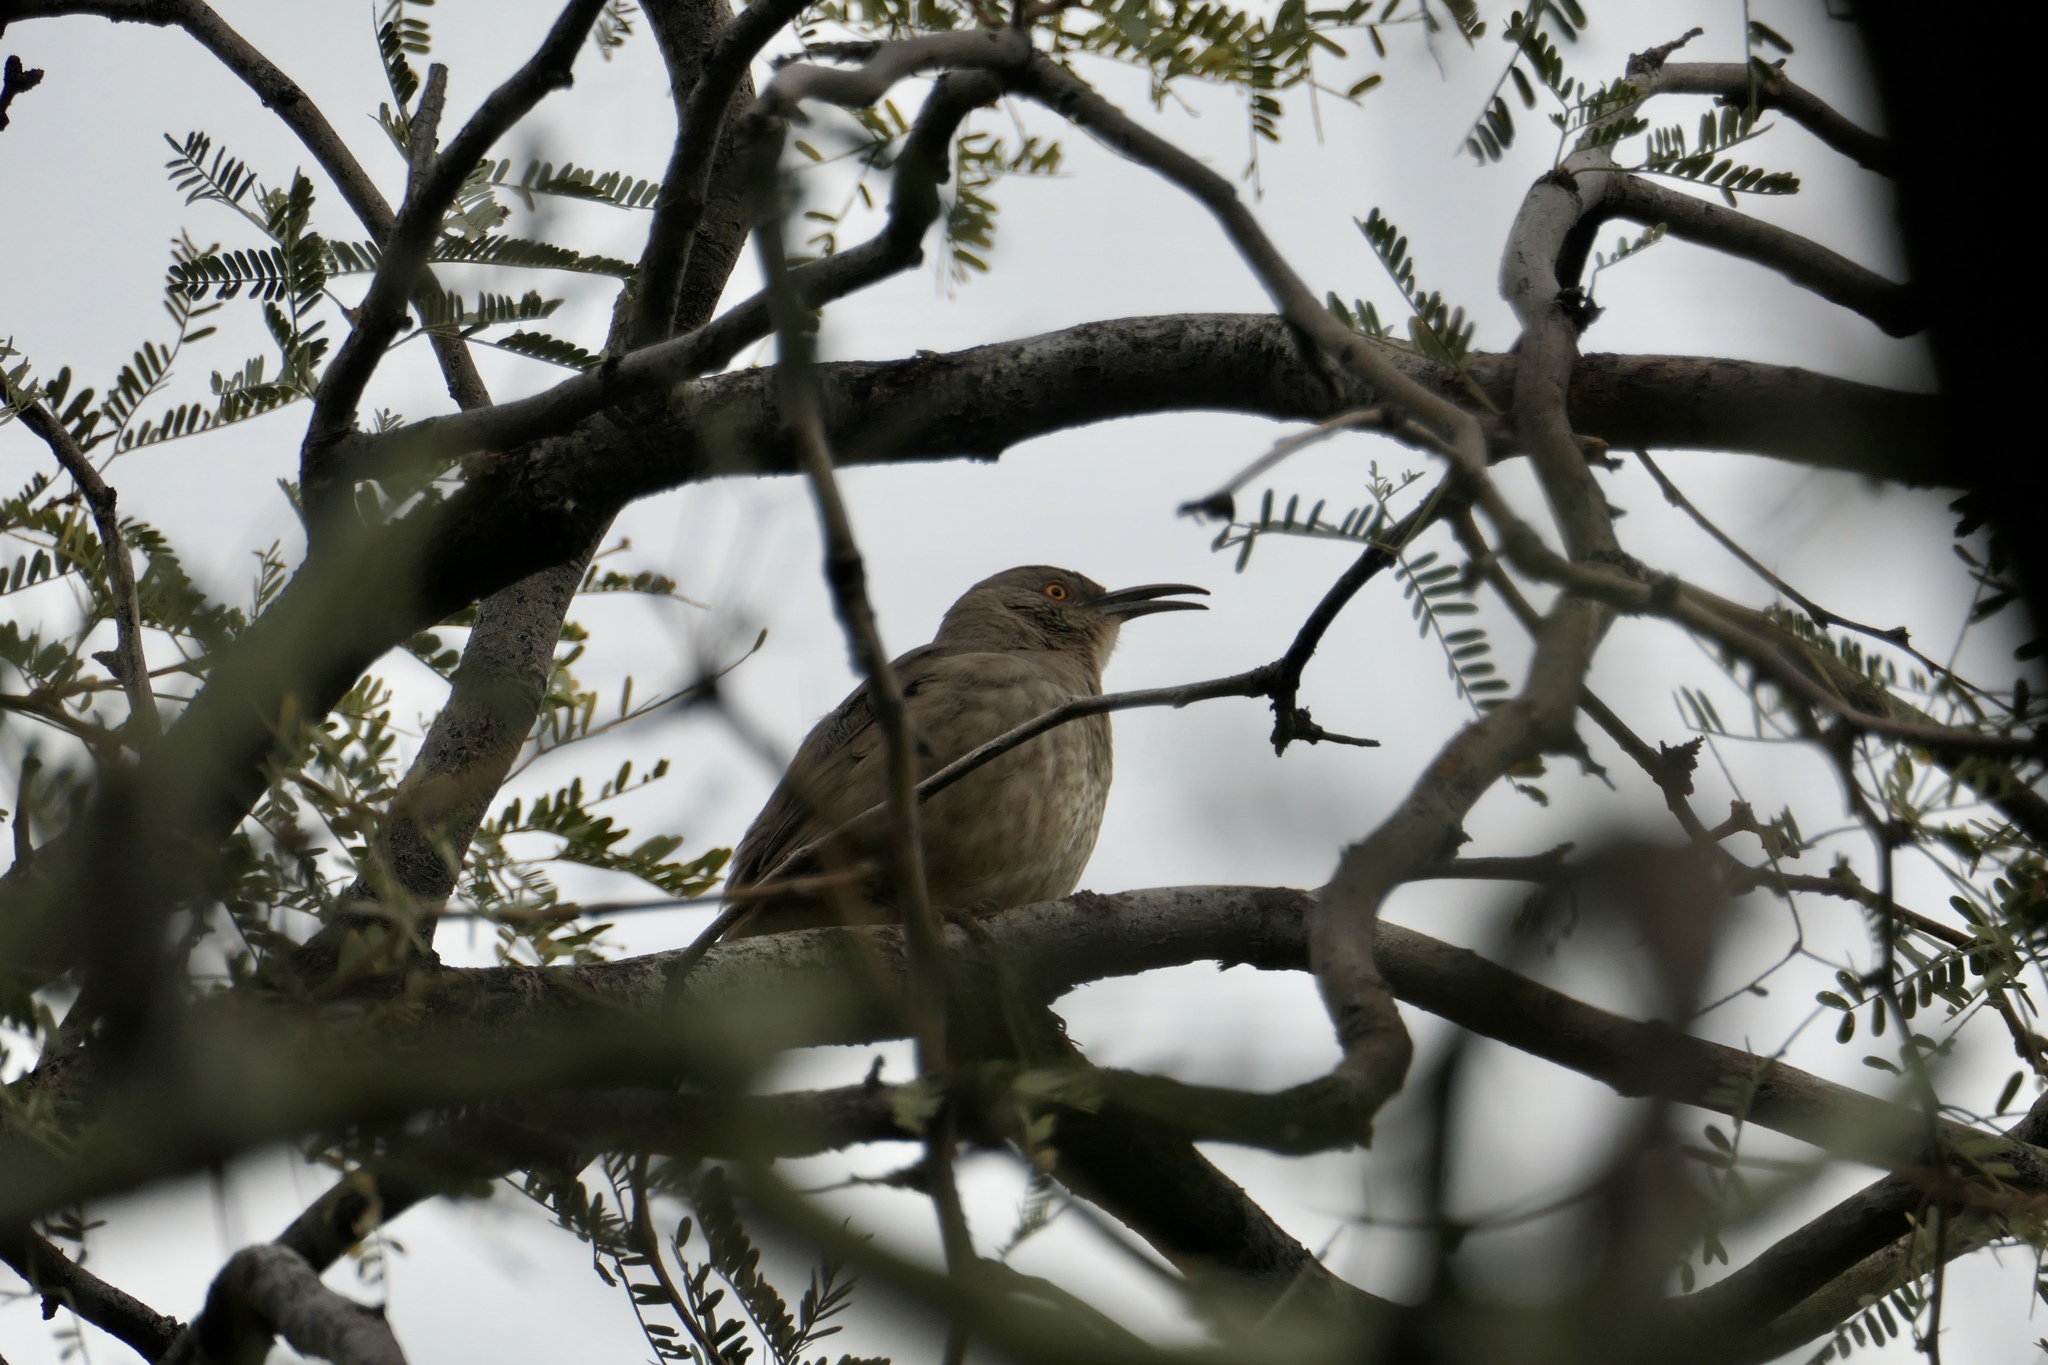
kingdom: Animalia
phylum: Chordata
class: Aves
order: Passeriformes
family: Mimidae
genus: Toxostoma
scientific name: Toxostoma curvirostre
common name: Curve-billed thrasher
